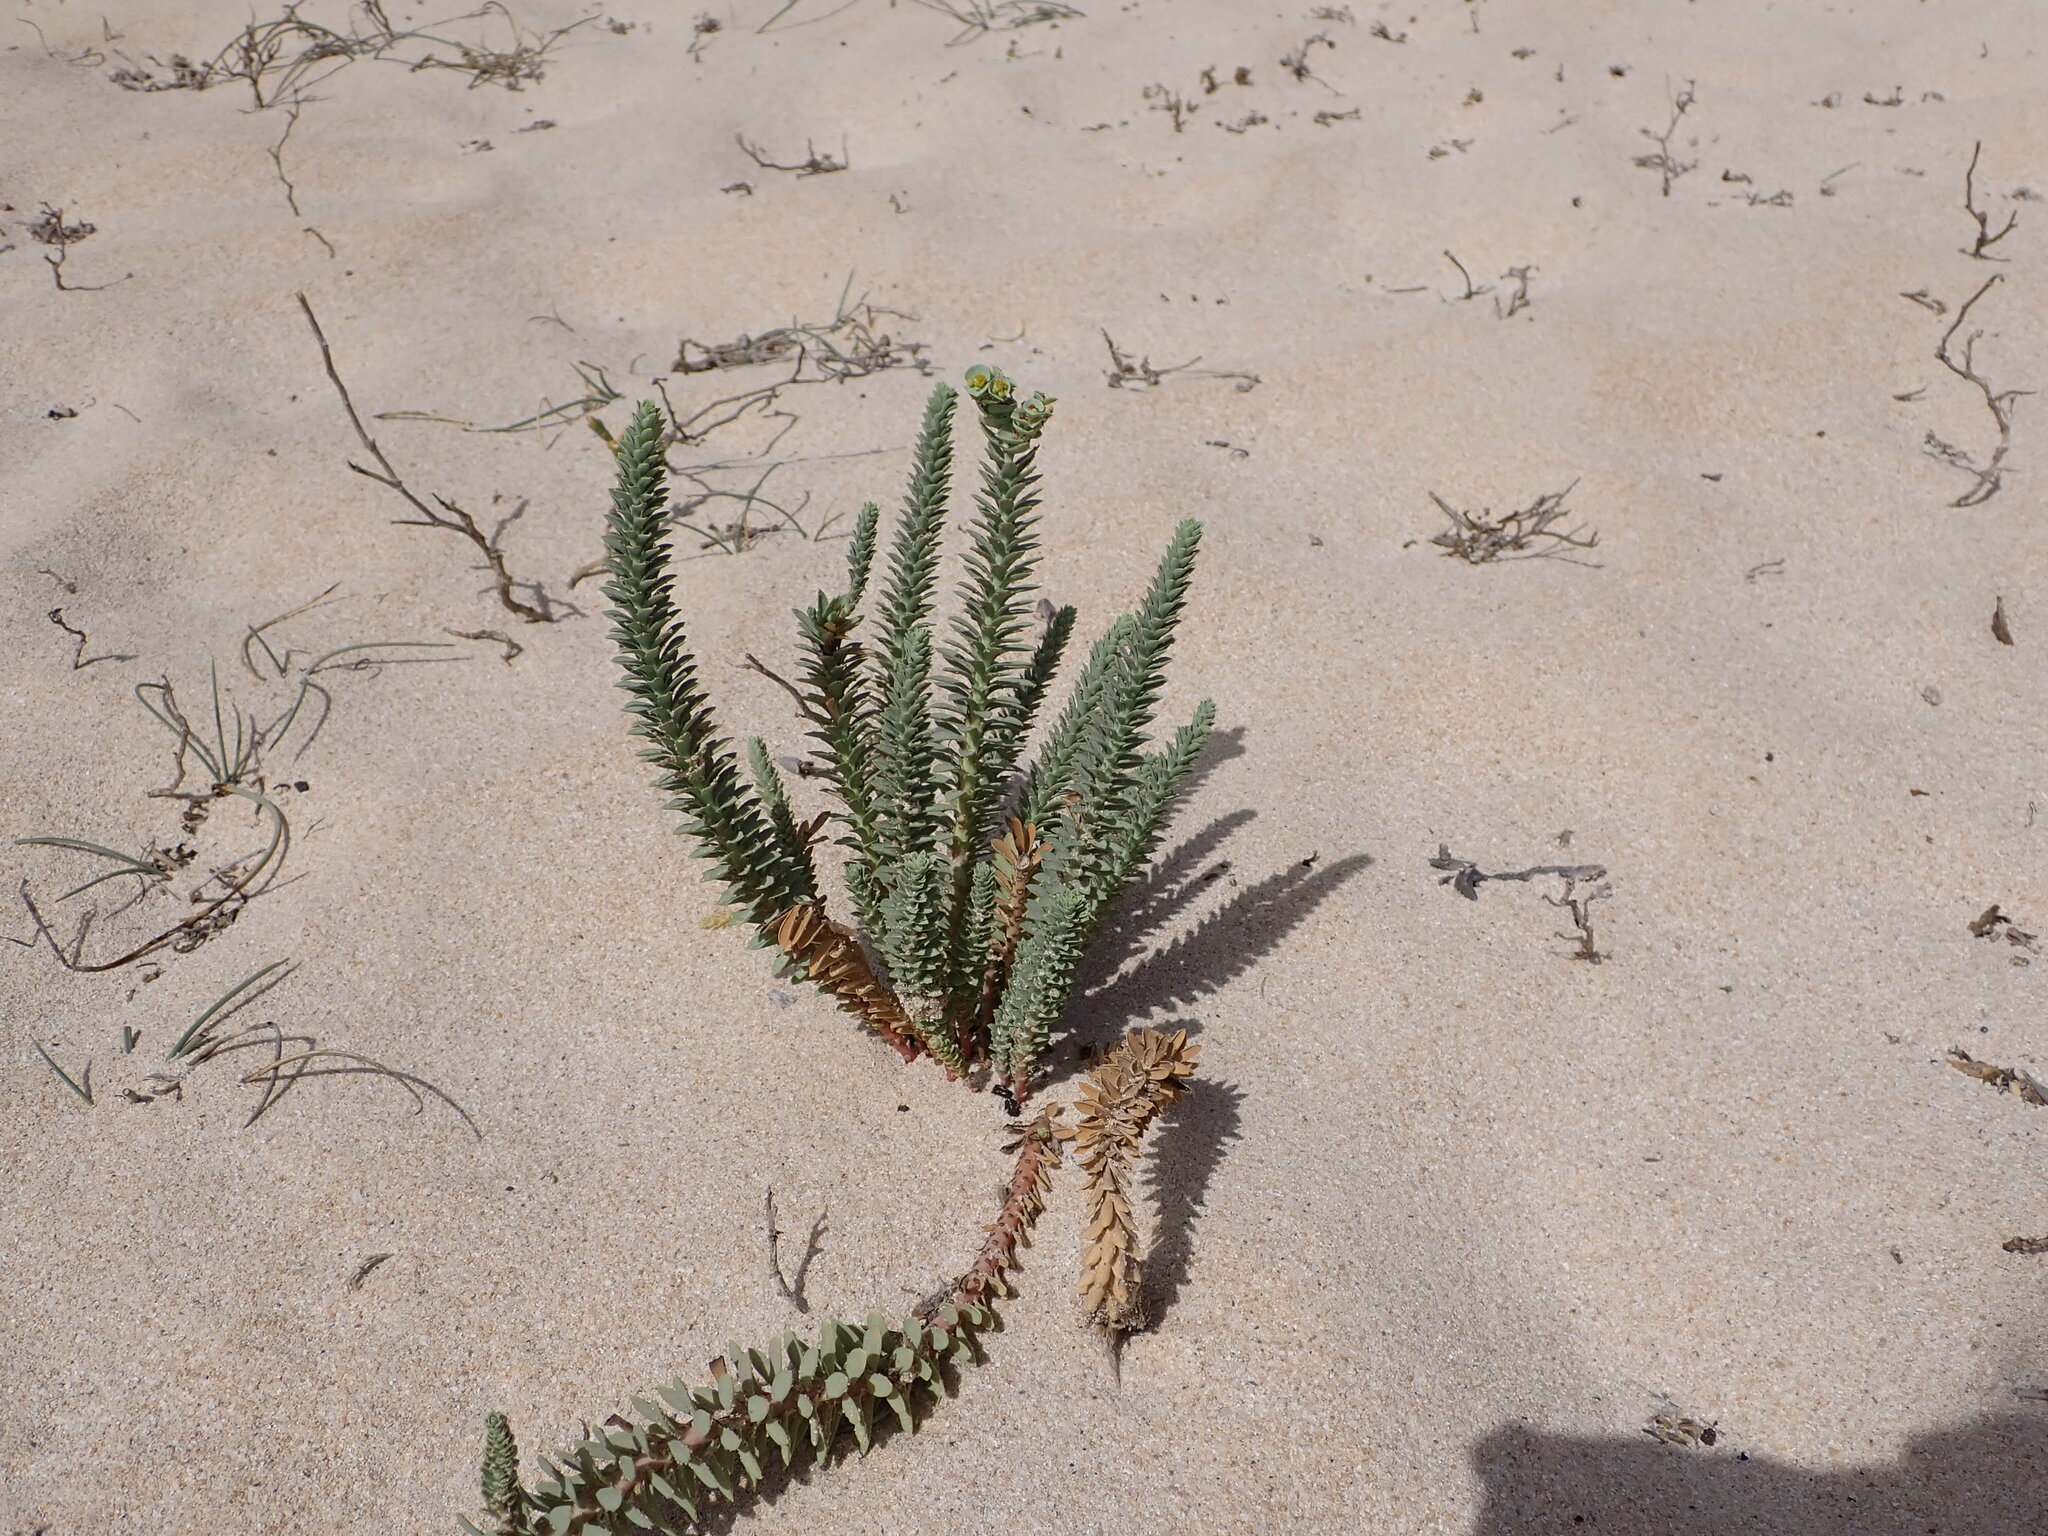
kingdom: Plantae
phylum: Tracheophyta
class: Magnoliopsida
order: Malpighiales
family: Euphorbiaceae
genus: Euphorbia
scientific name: Euphorbia paralias
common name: Sea spurge
